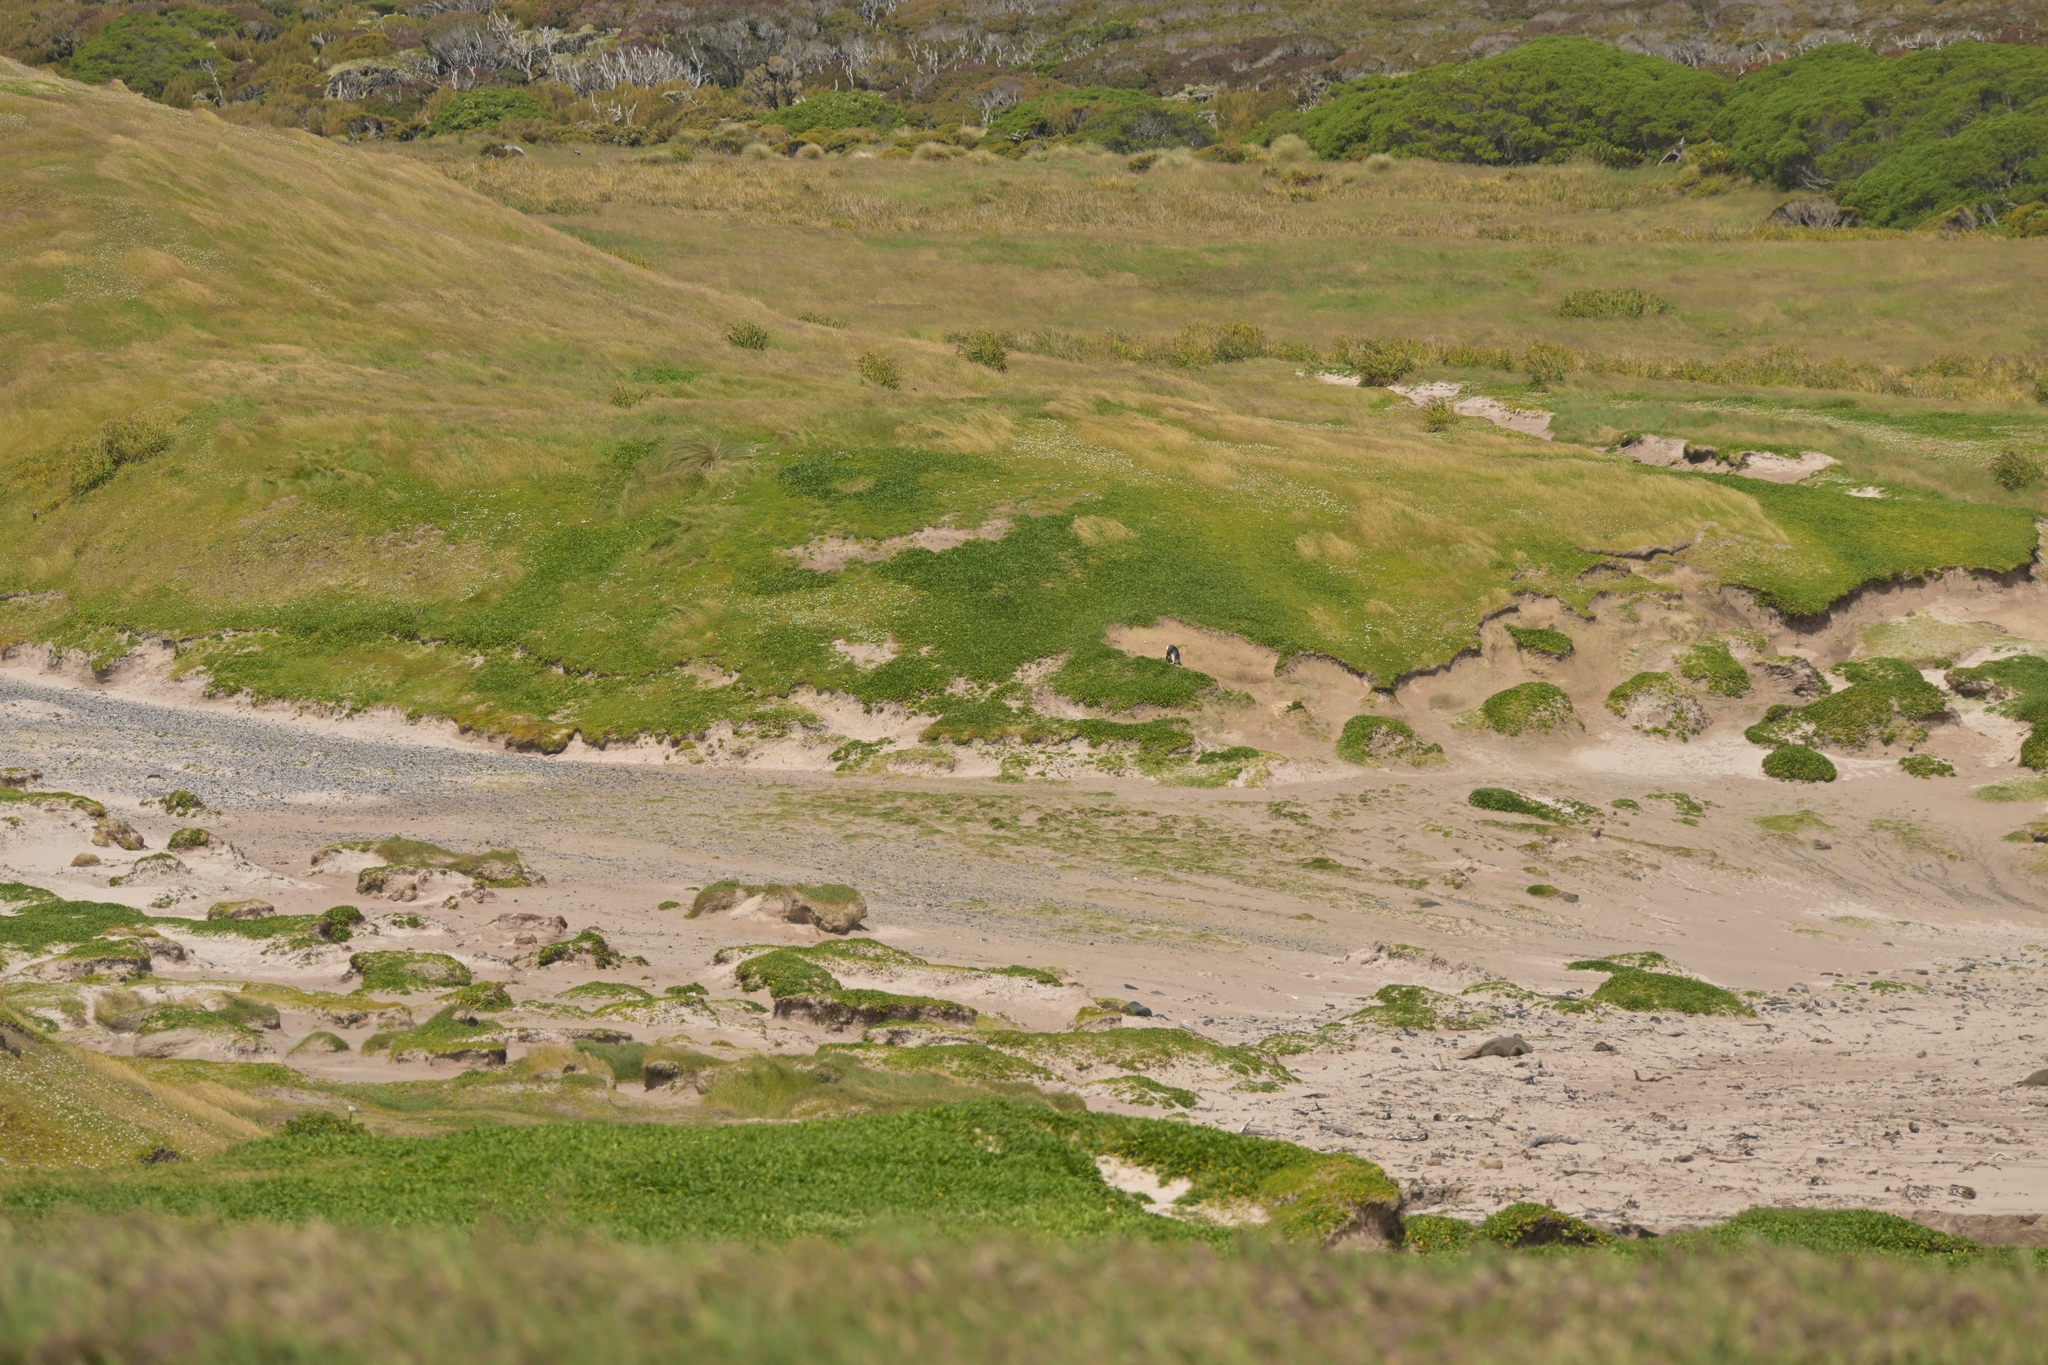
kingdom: Animalia
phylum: Chordata
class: Aves
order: Sphenisciformes
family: Spheniscidae
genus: Megadyptes
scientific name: Megadyptes antipodes
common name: Yellow-eyed penguin
